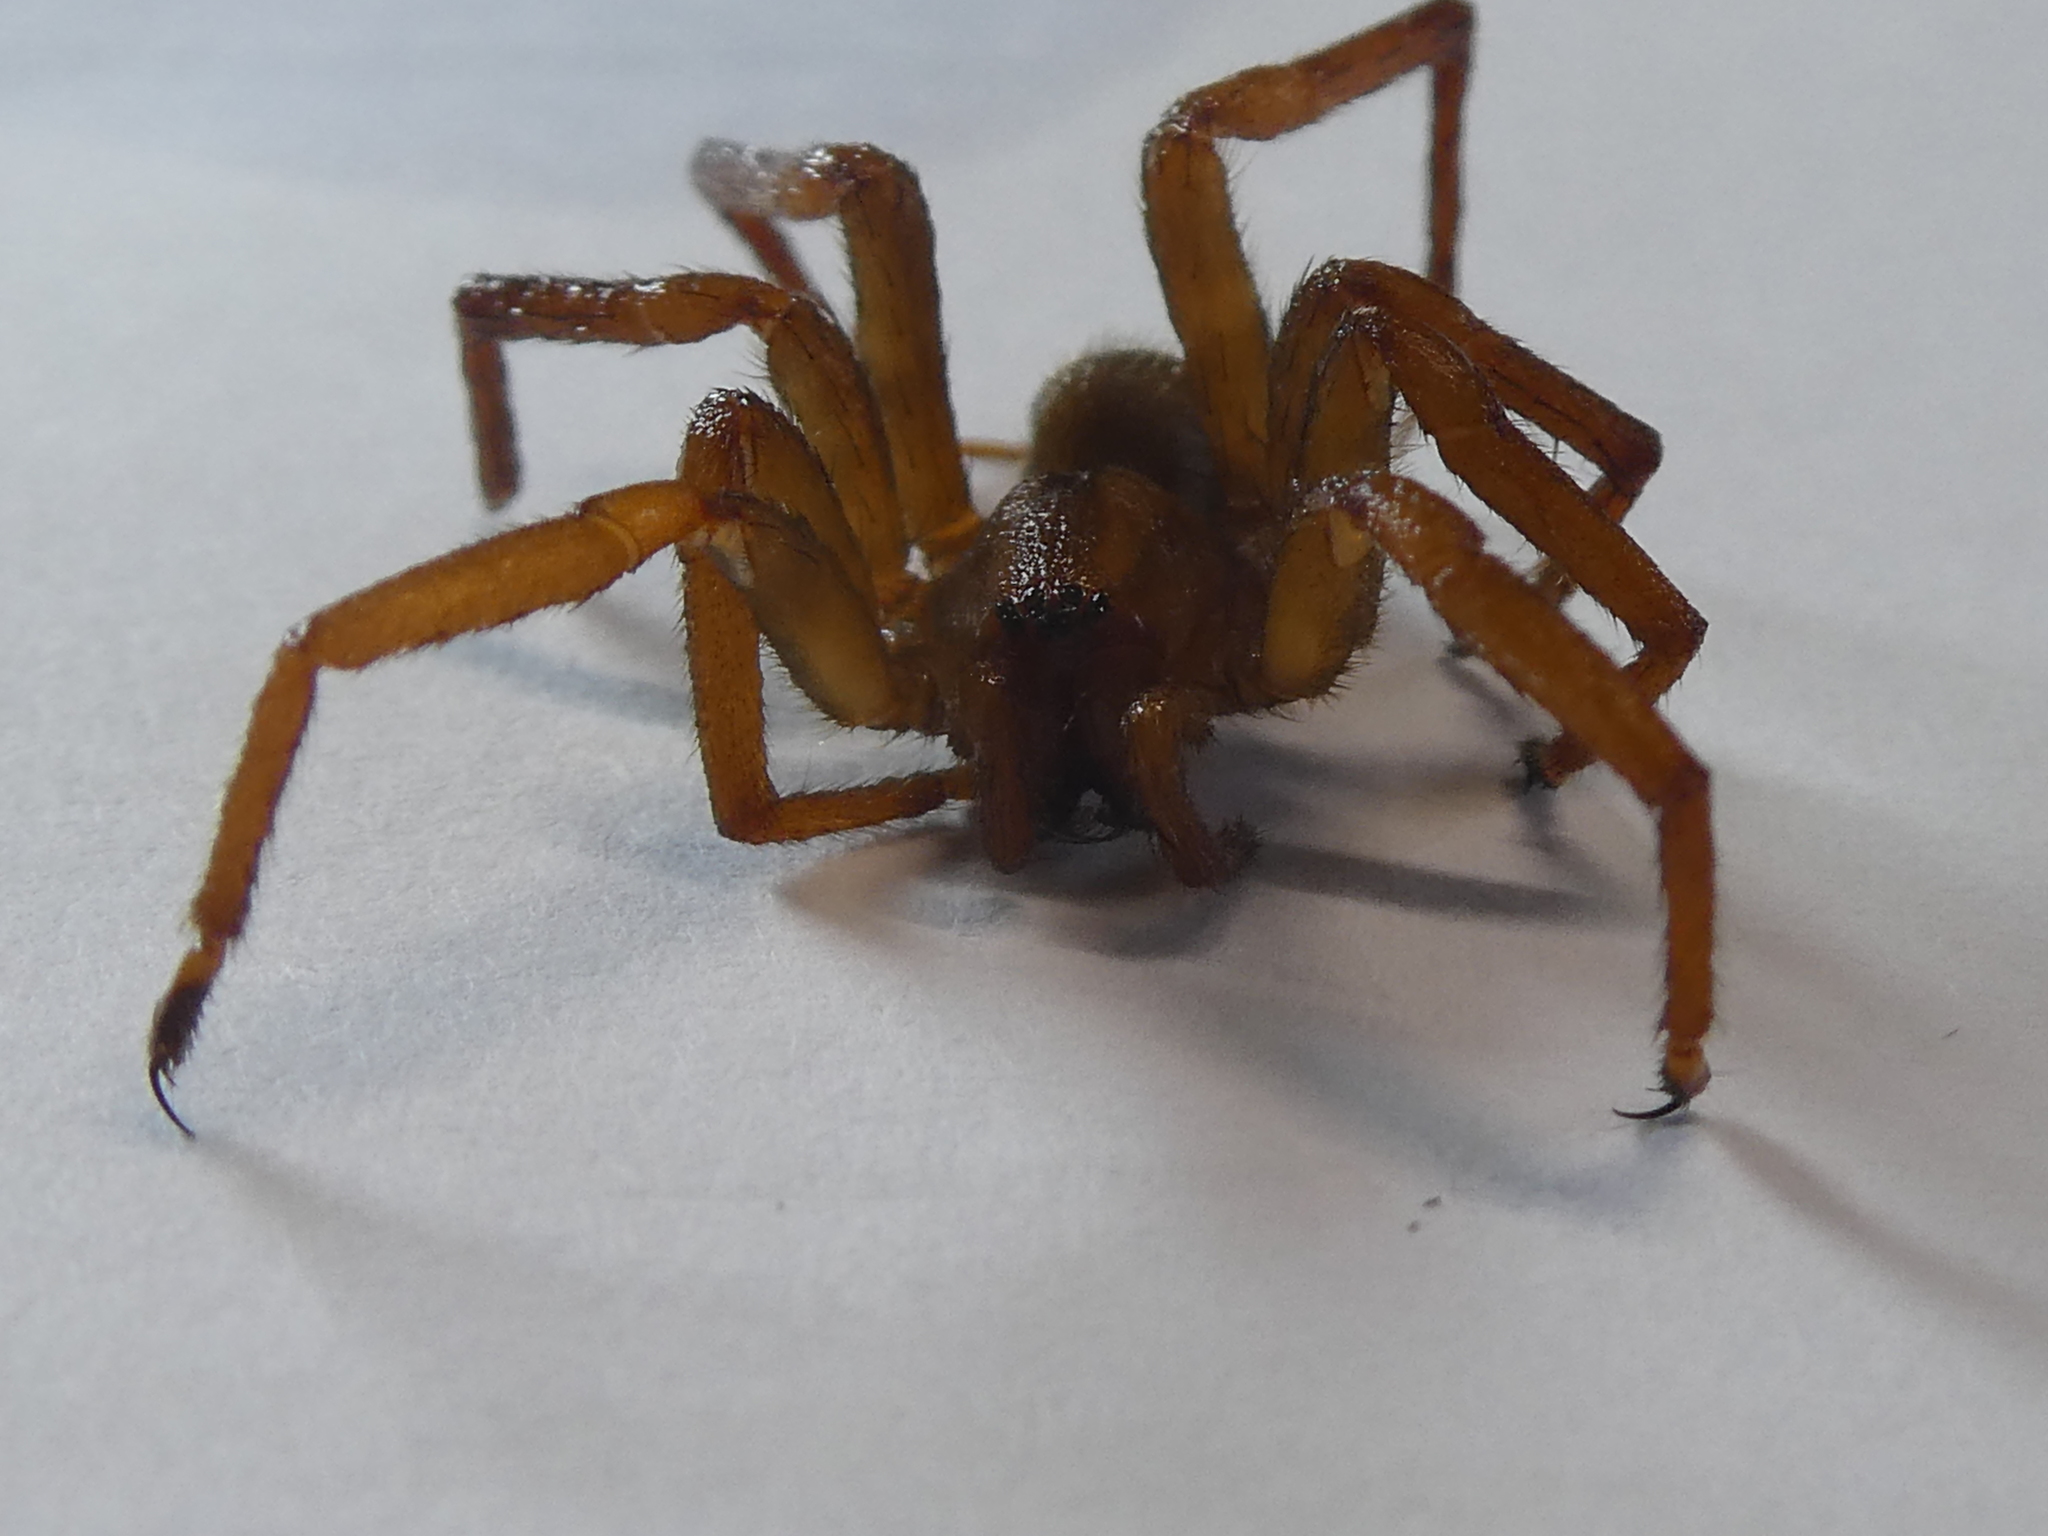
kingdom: Animalia
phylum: Arthropoda
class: Arachnida
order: Araneae
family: Gradungulidae
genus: Gradungula
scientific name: Gradungula sorenseni
